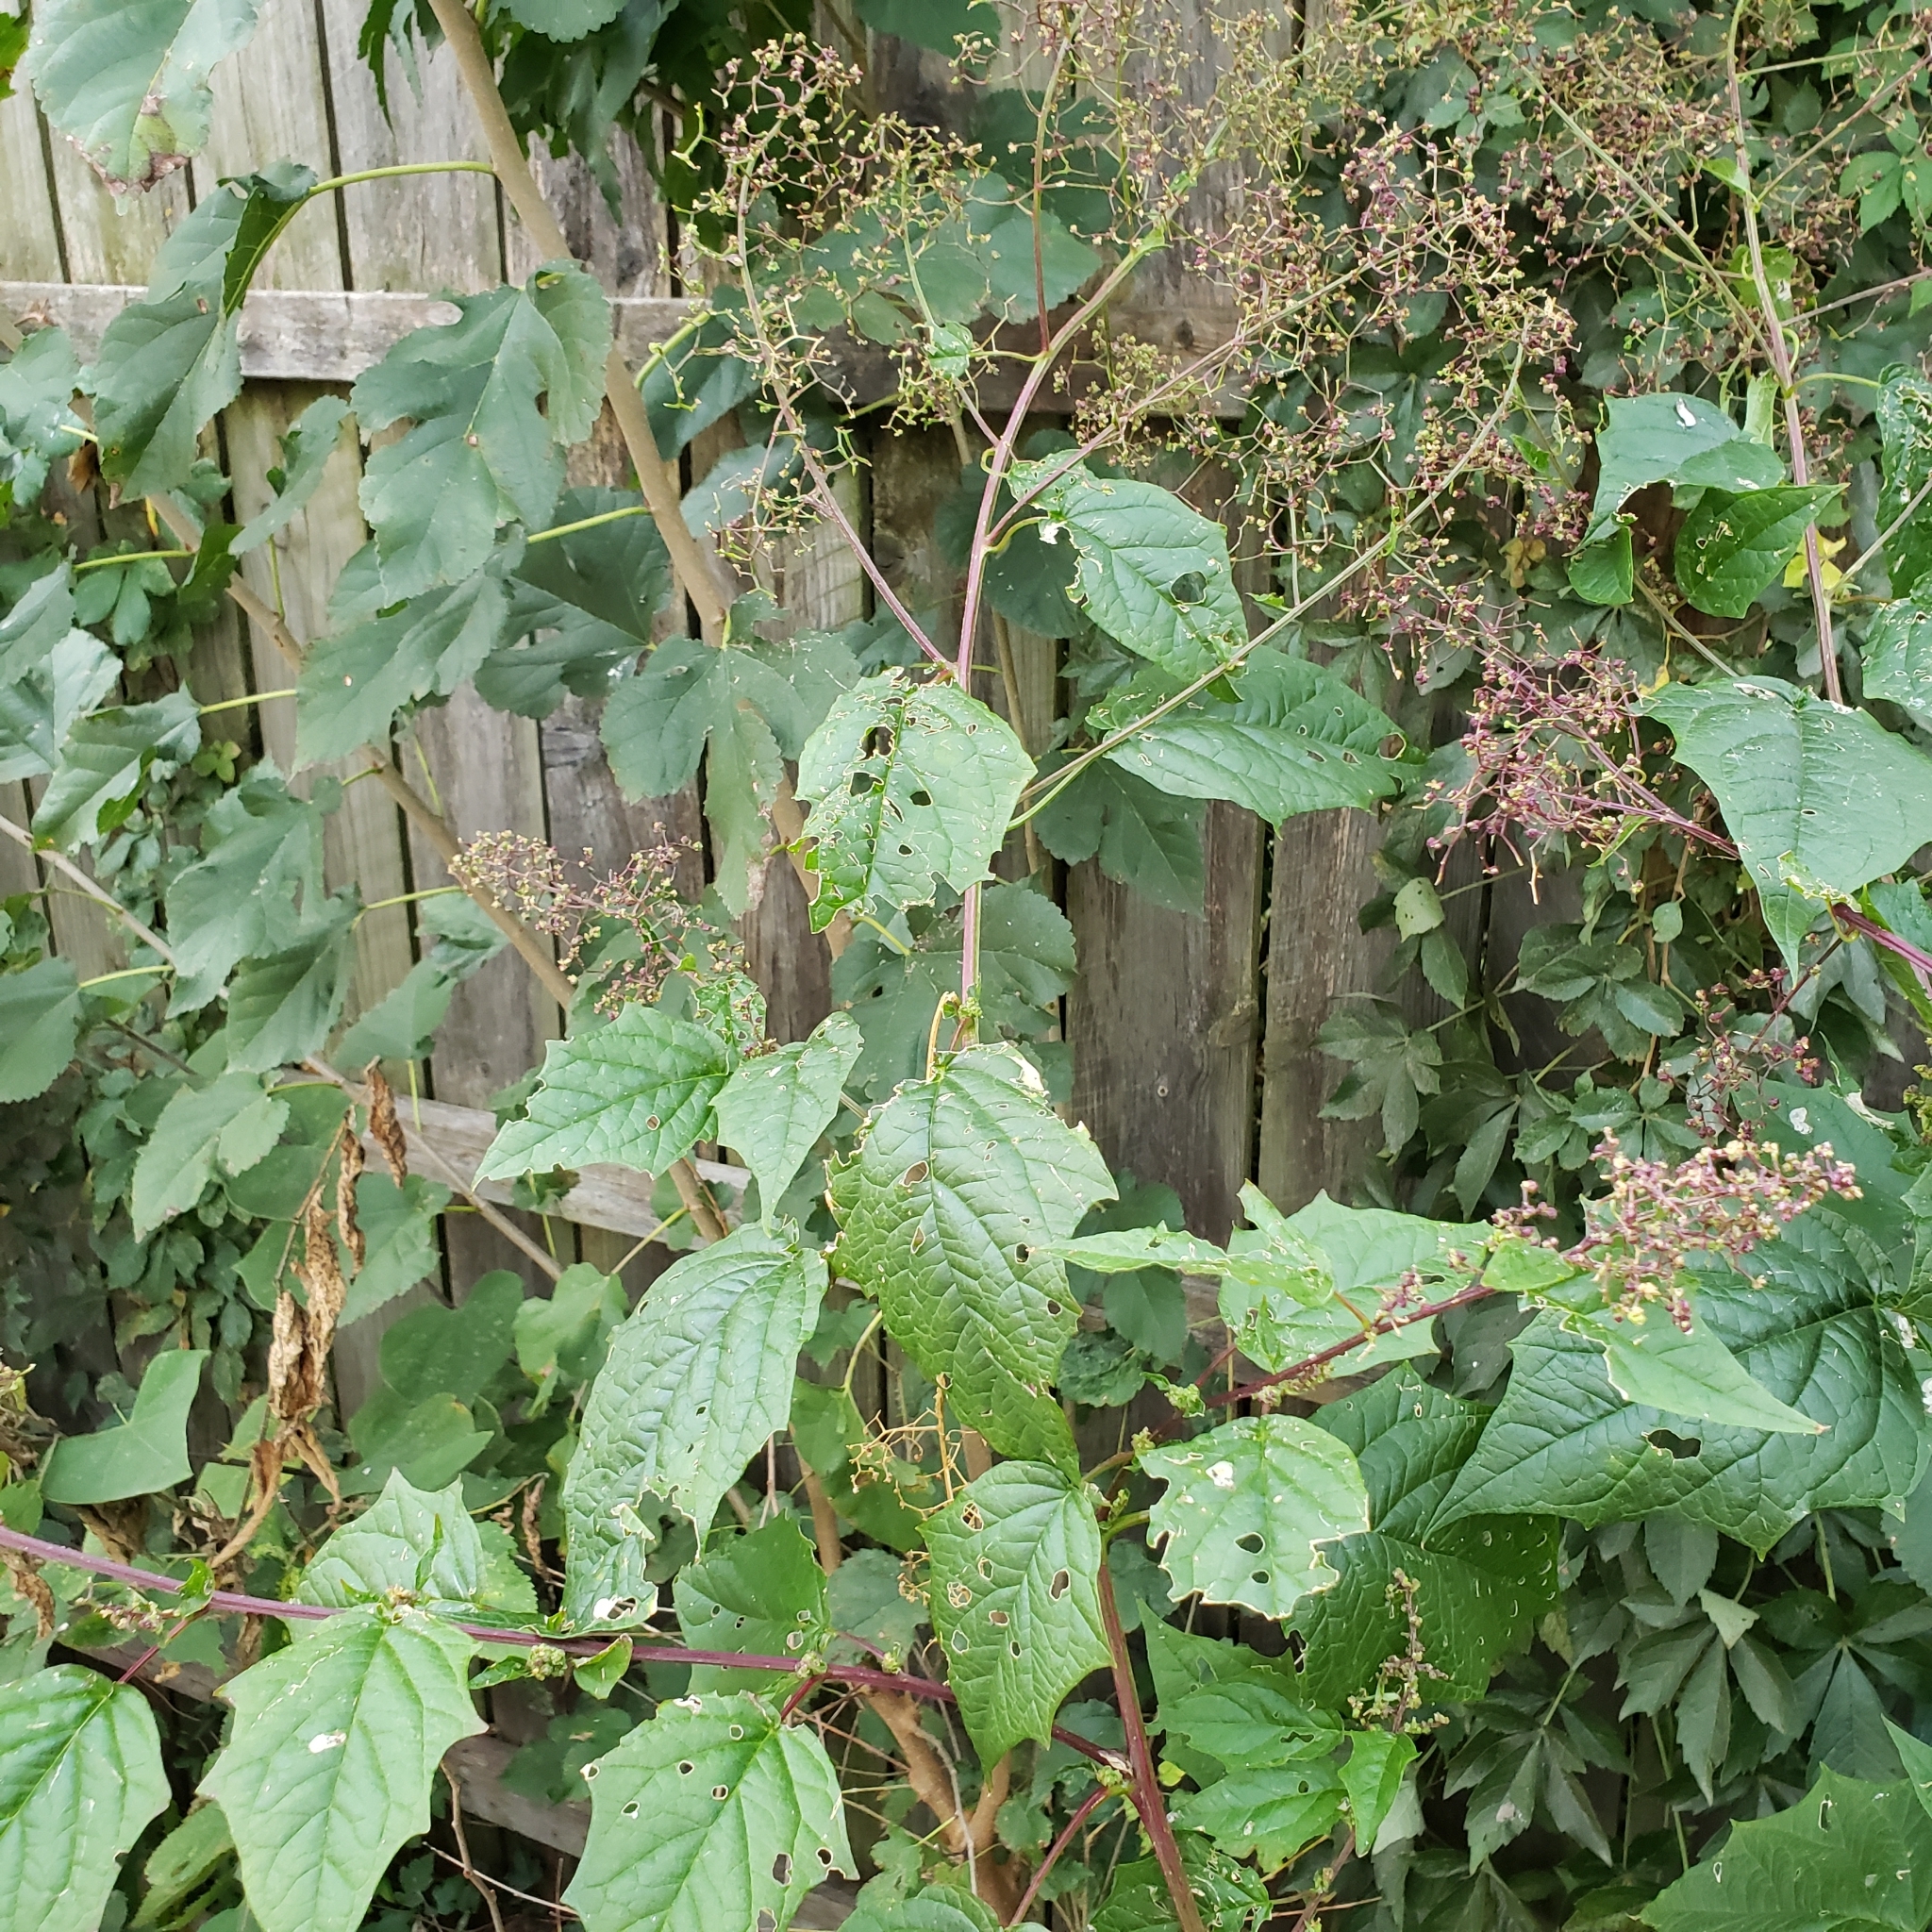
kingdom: Plantae
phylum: Tracheophyta
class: Magnoliopsida
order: Caryophyllales
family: Amaranthaceae
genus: Chenopodiastrum
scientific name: Chenopodiastrum hybridum
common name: Mapleleaf goosefoot
